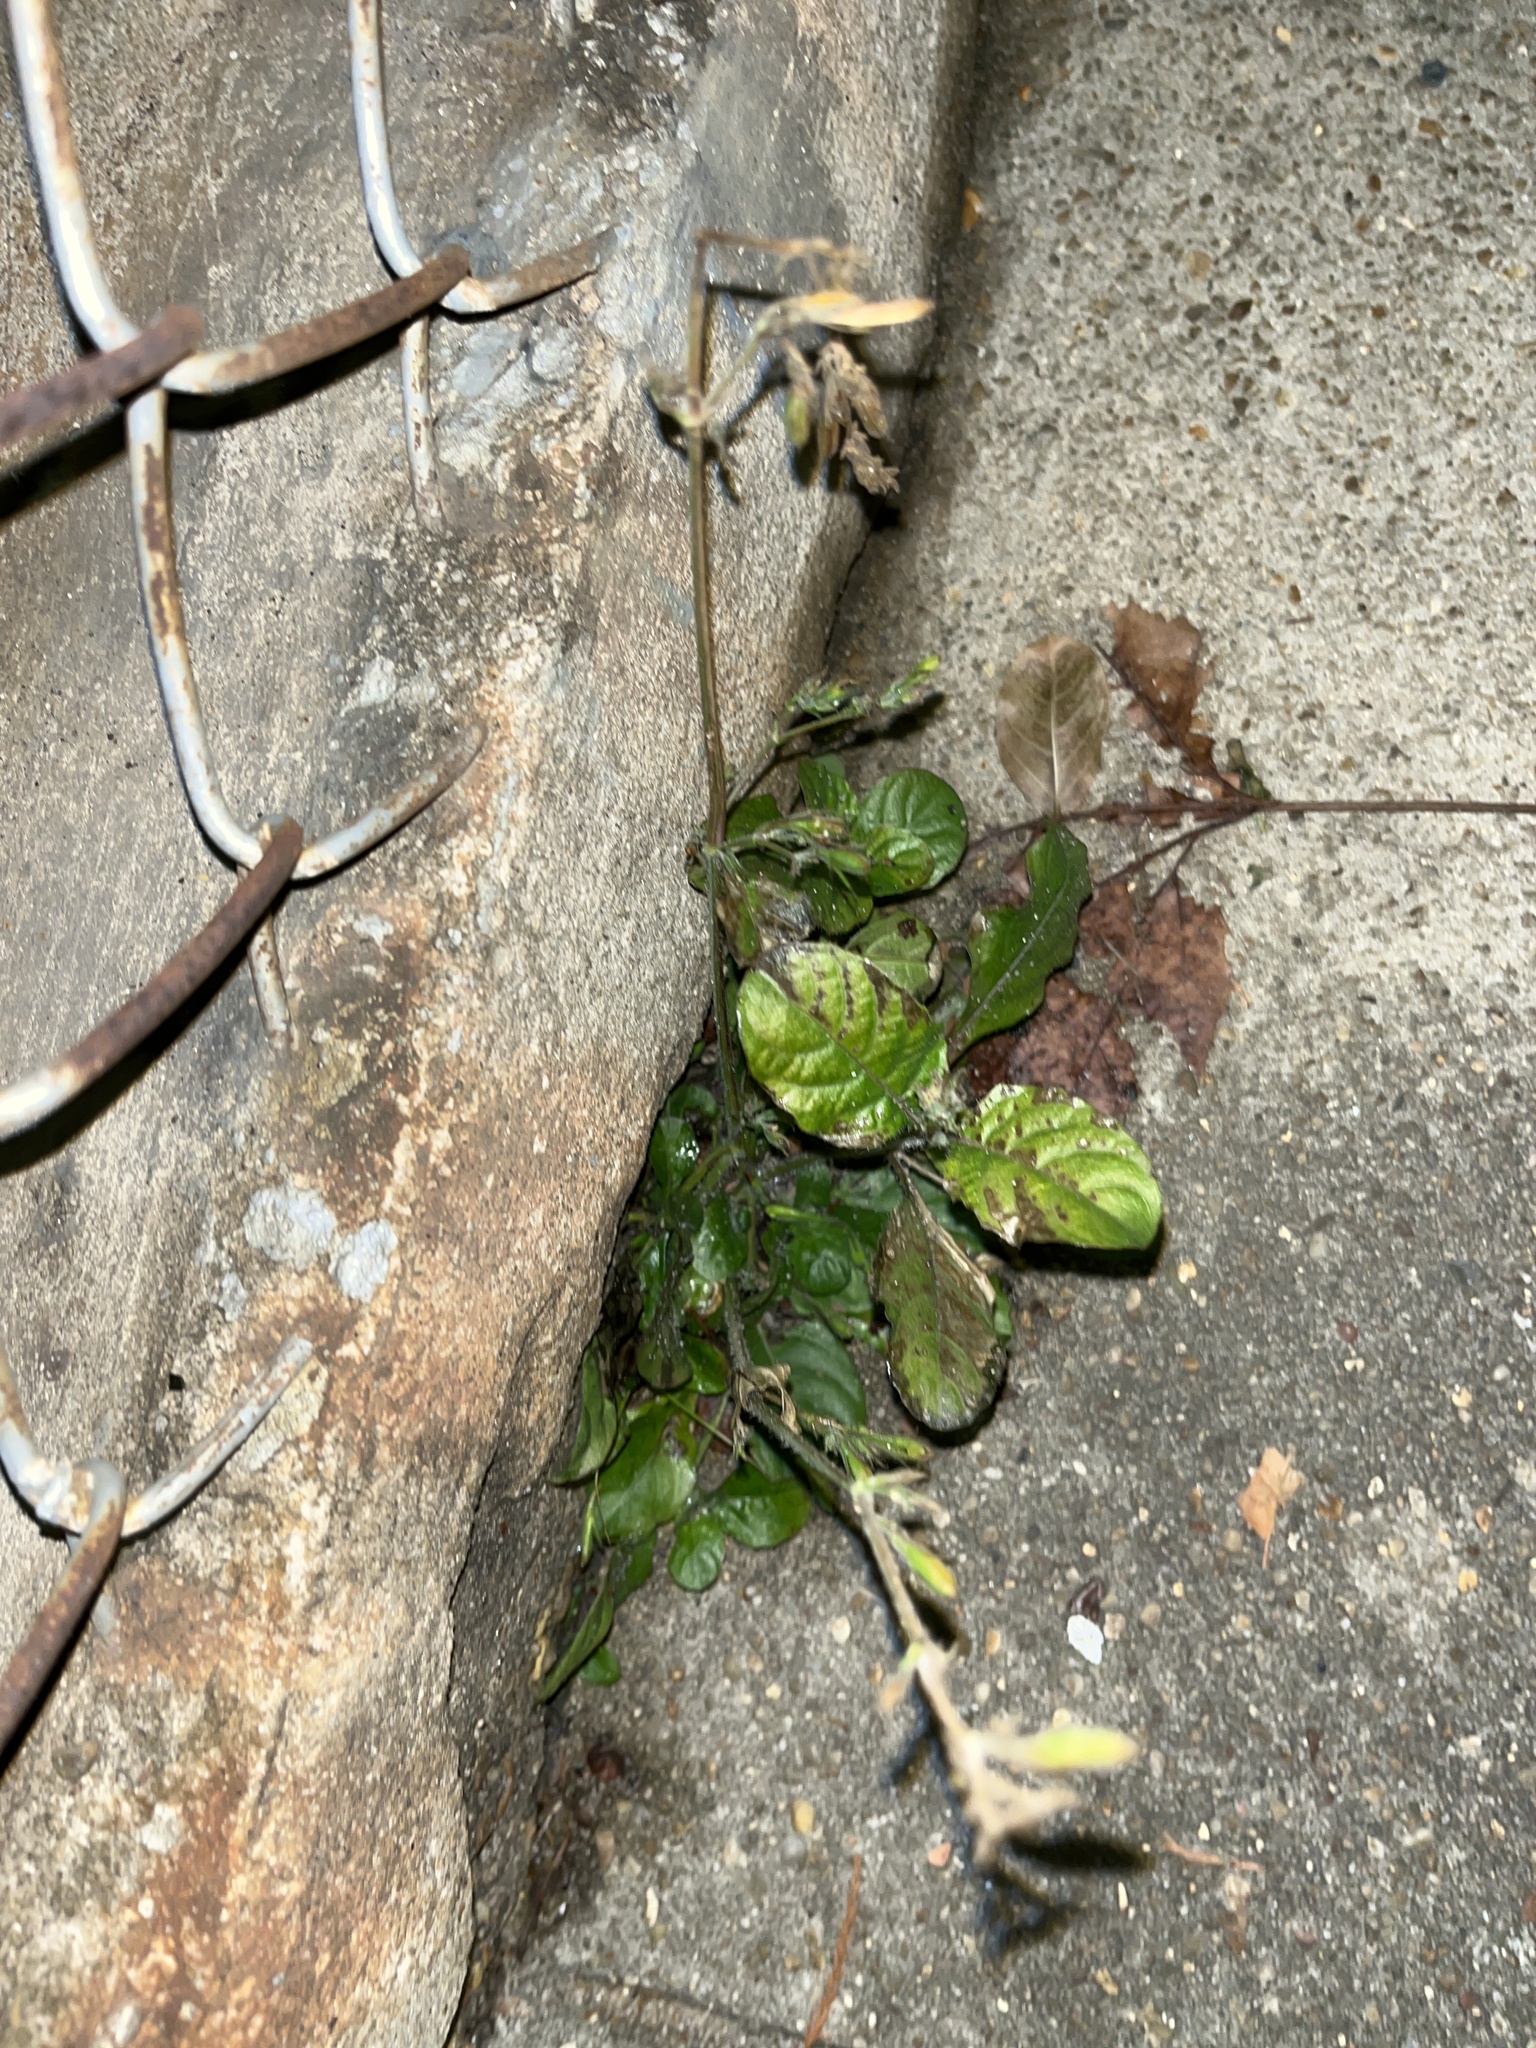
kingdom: Plantae
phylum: Tracheophyta
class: Magnoliopsida
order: Asterales
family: Asteraceae
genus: Youngia
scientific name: Youngia japonica
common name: Oriental false hawksbeard
